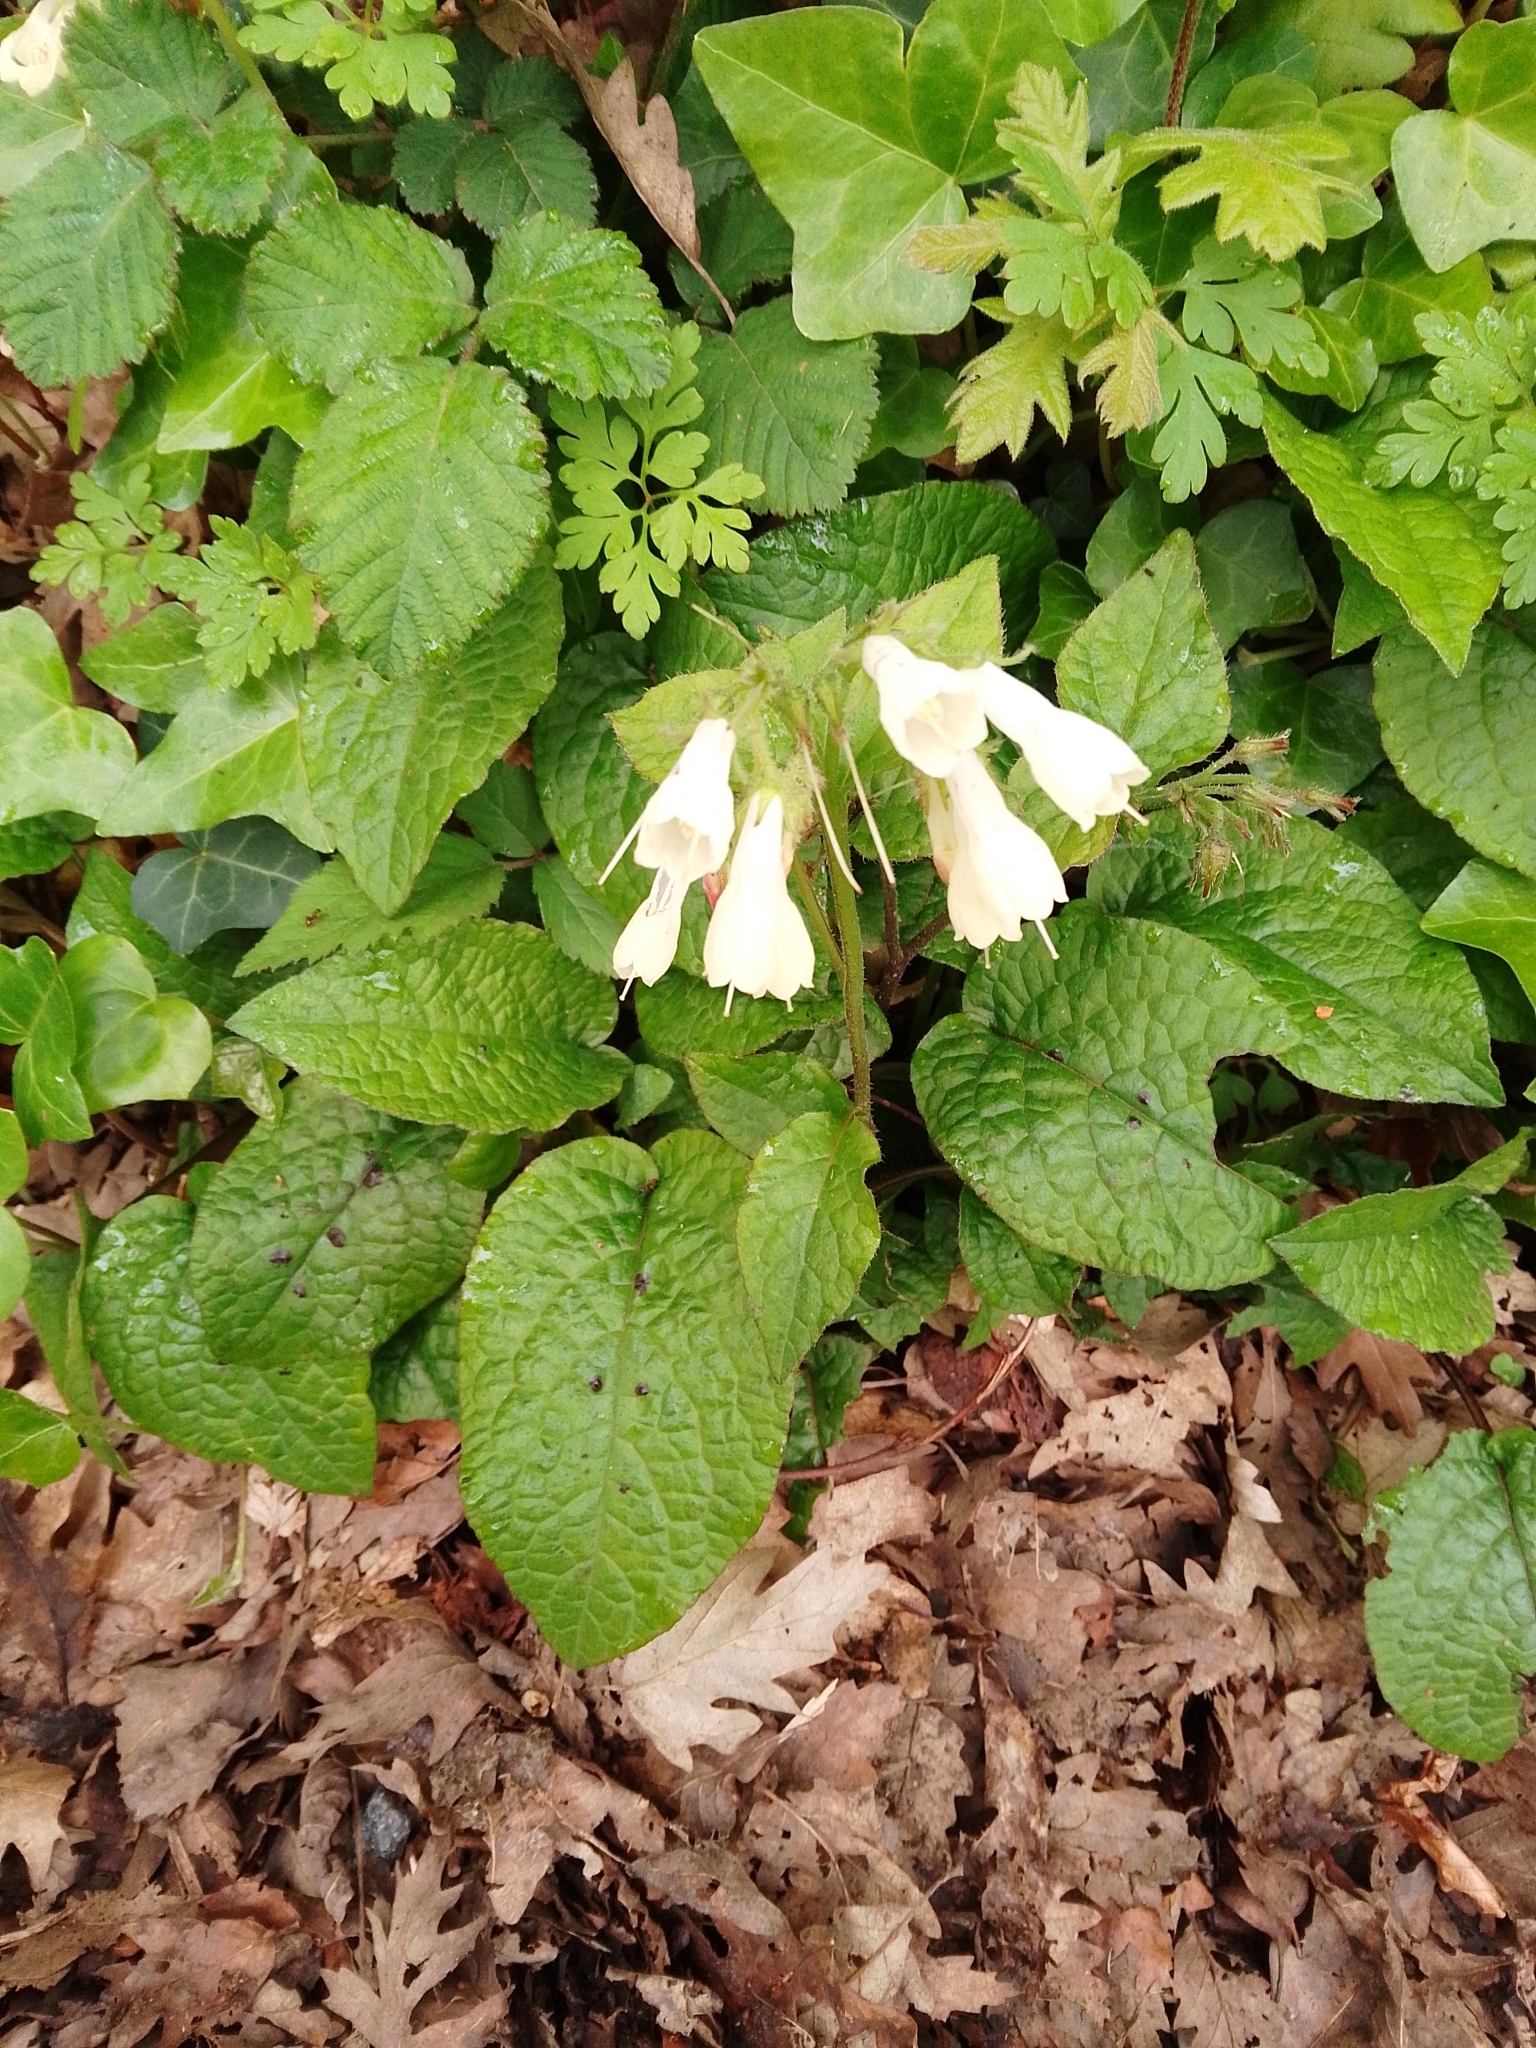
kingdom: Plantae
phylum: Tracheophyta
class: Magnoliopsida
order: Boraginales
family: Boraginaceae
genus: Symphytum
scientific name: Symphytum grandiflorum
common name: Creeping comfrey
